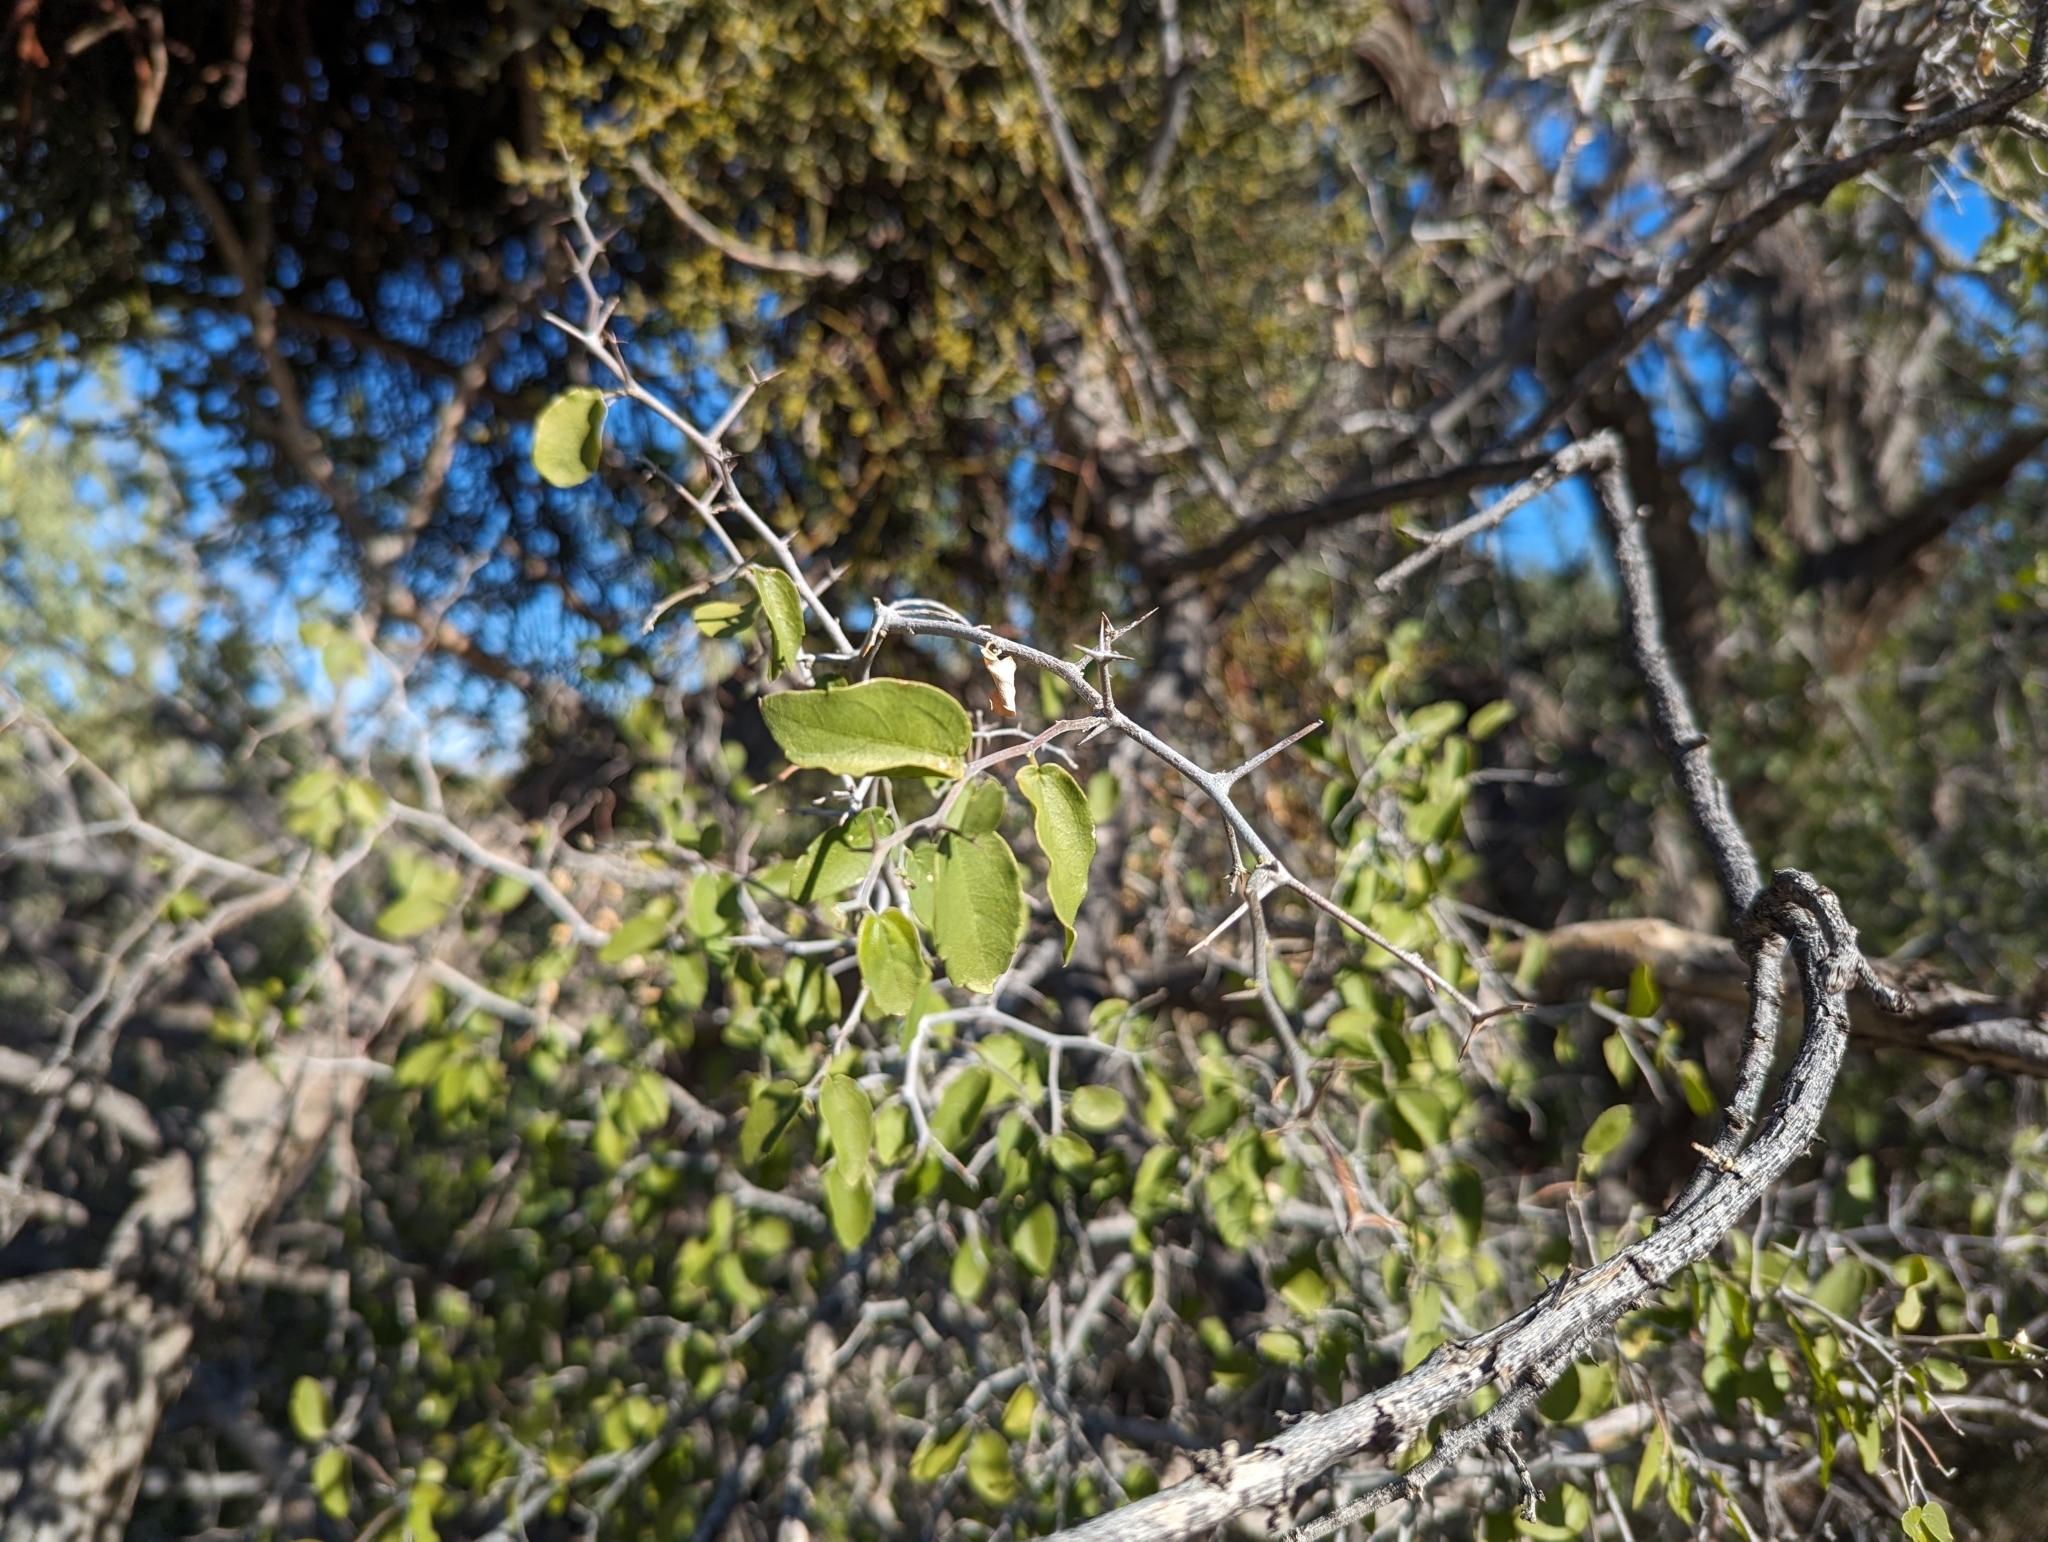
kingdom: Plantae
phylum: Tracheophyta
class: Magnoliopsida
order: Rosales
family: Cannabaceae
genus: Celtis
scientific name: Celtis pallida
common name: Desert hackberry
